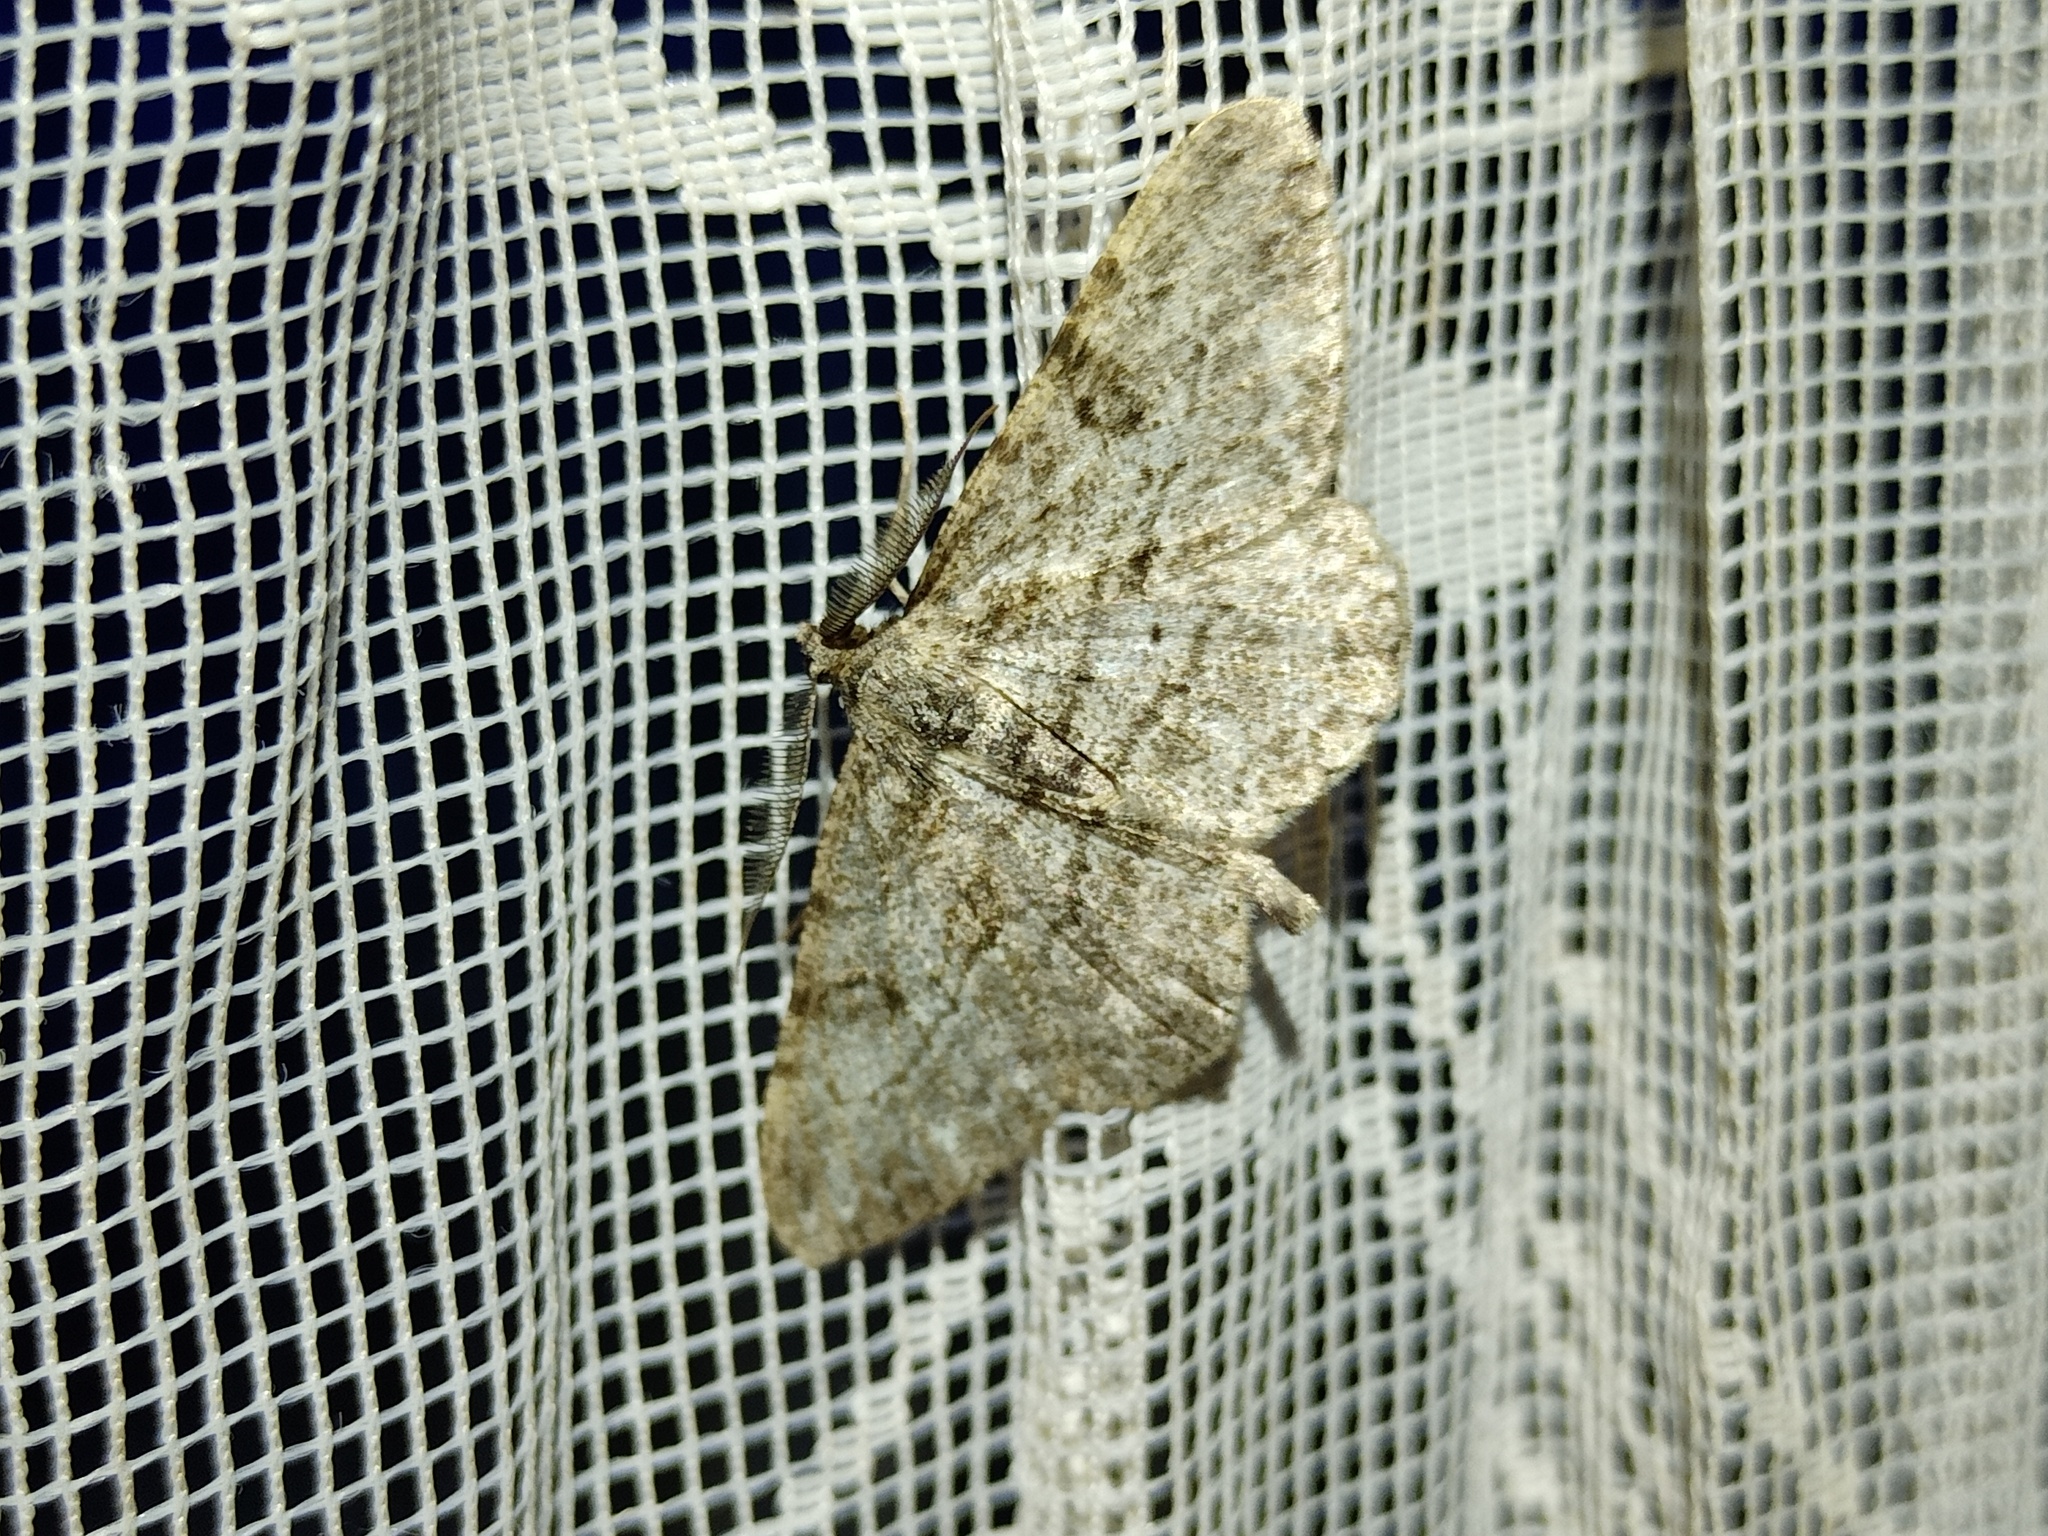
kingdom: Animalia
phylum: Arthropoda
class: Insecta
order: Lepidoptera
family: Geometridae
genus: Peribatodes
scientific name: Peribatodes rhomboidaria
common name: Willow beauty
